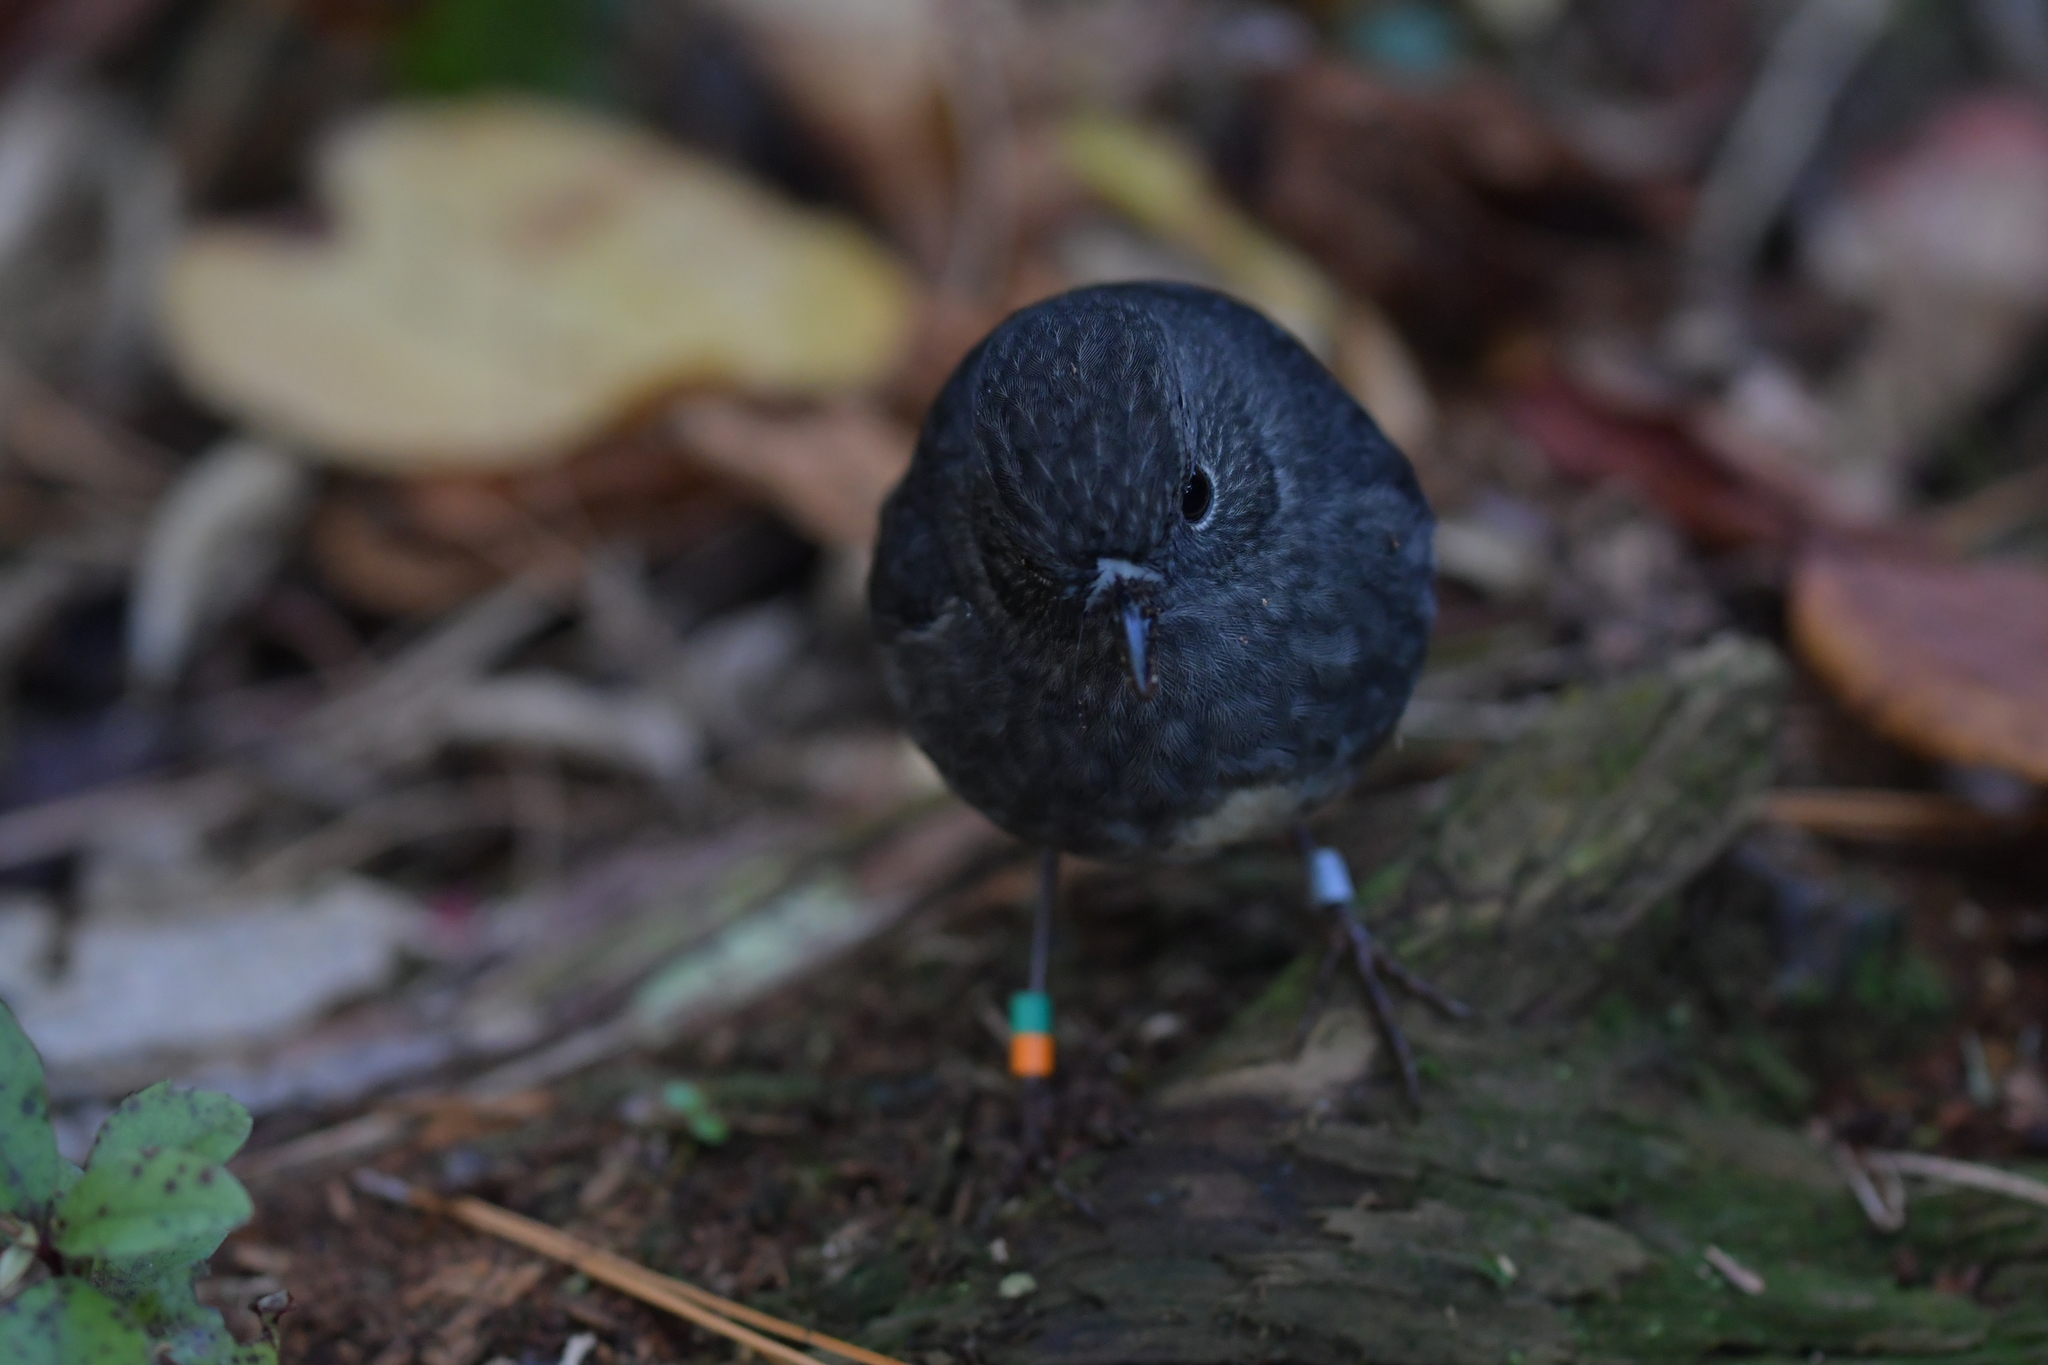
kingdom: Animalia
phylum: Chordata
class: Aves
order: Passeriformes
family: Petroicidae
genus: Petroica
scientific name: Petroica australis
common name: New zealand robin
